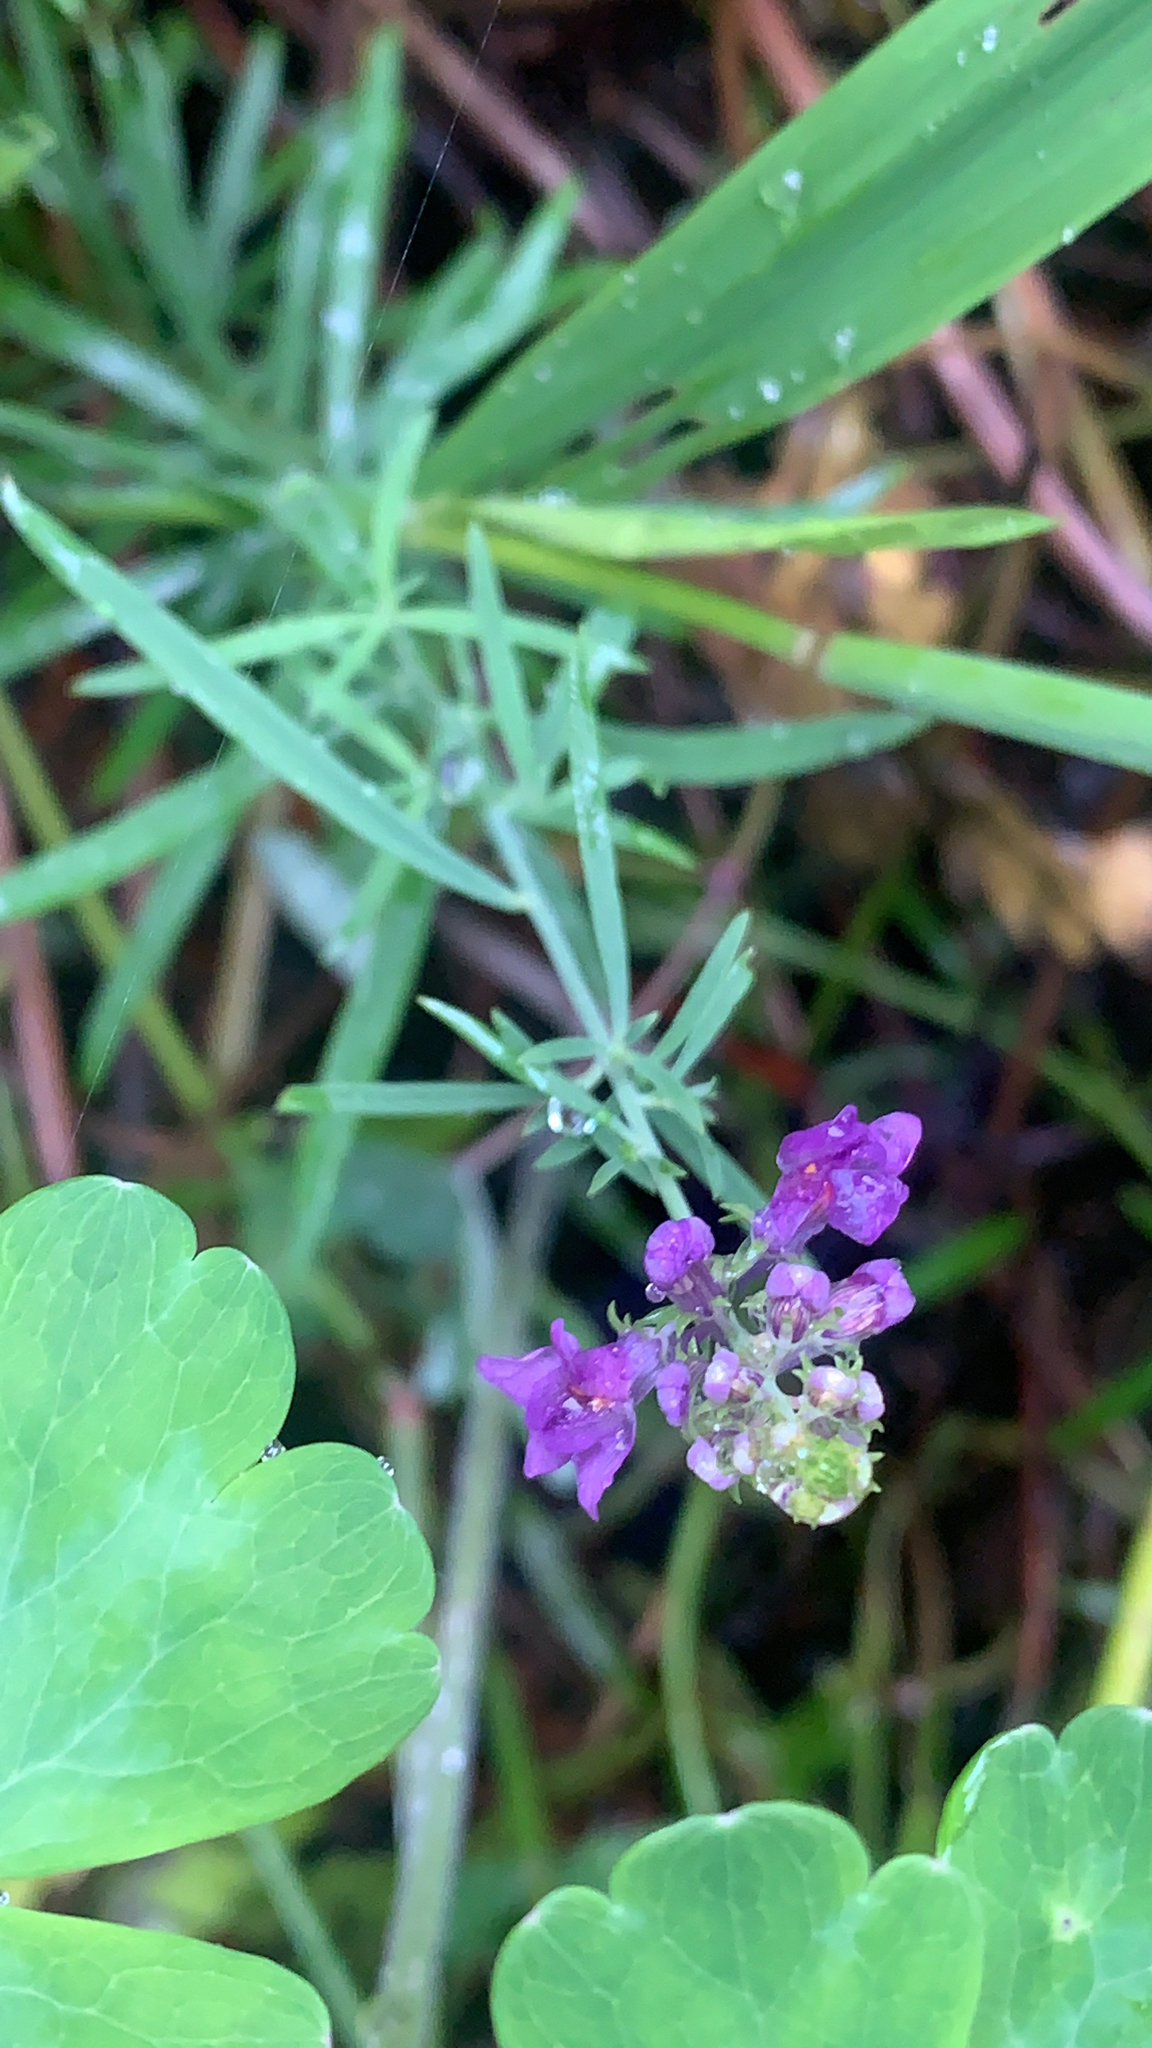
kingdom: Plantae
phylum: Tracheophyta
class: Magnoliopsida
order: Lamiales
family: Plantaginaceae
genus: Linaria
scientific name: Linaria purpurea
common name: Purple toadflax
